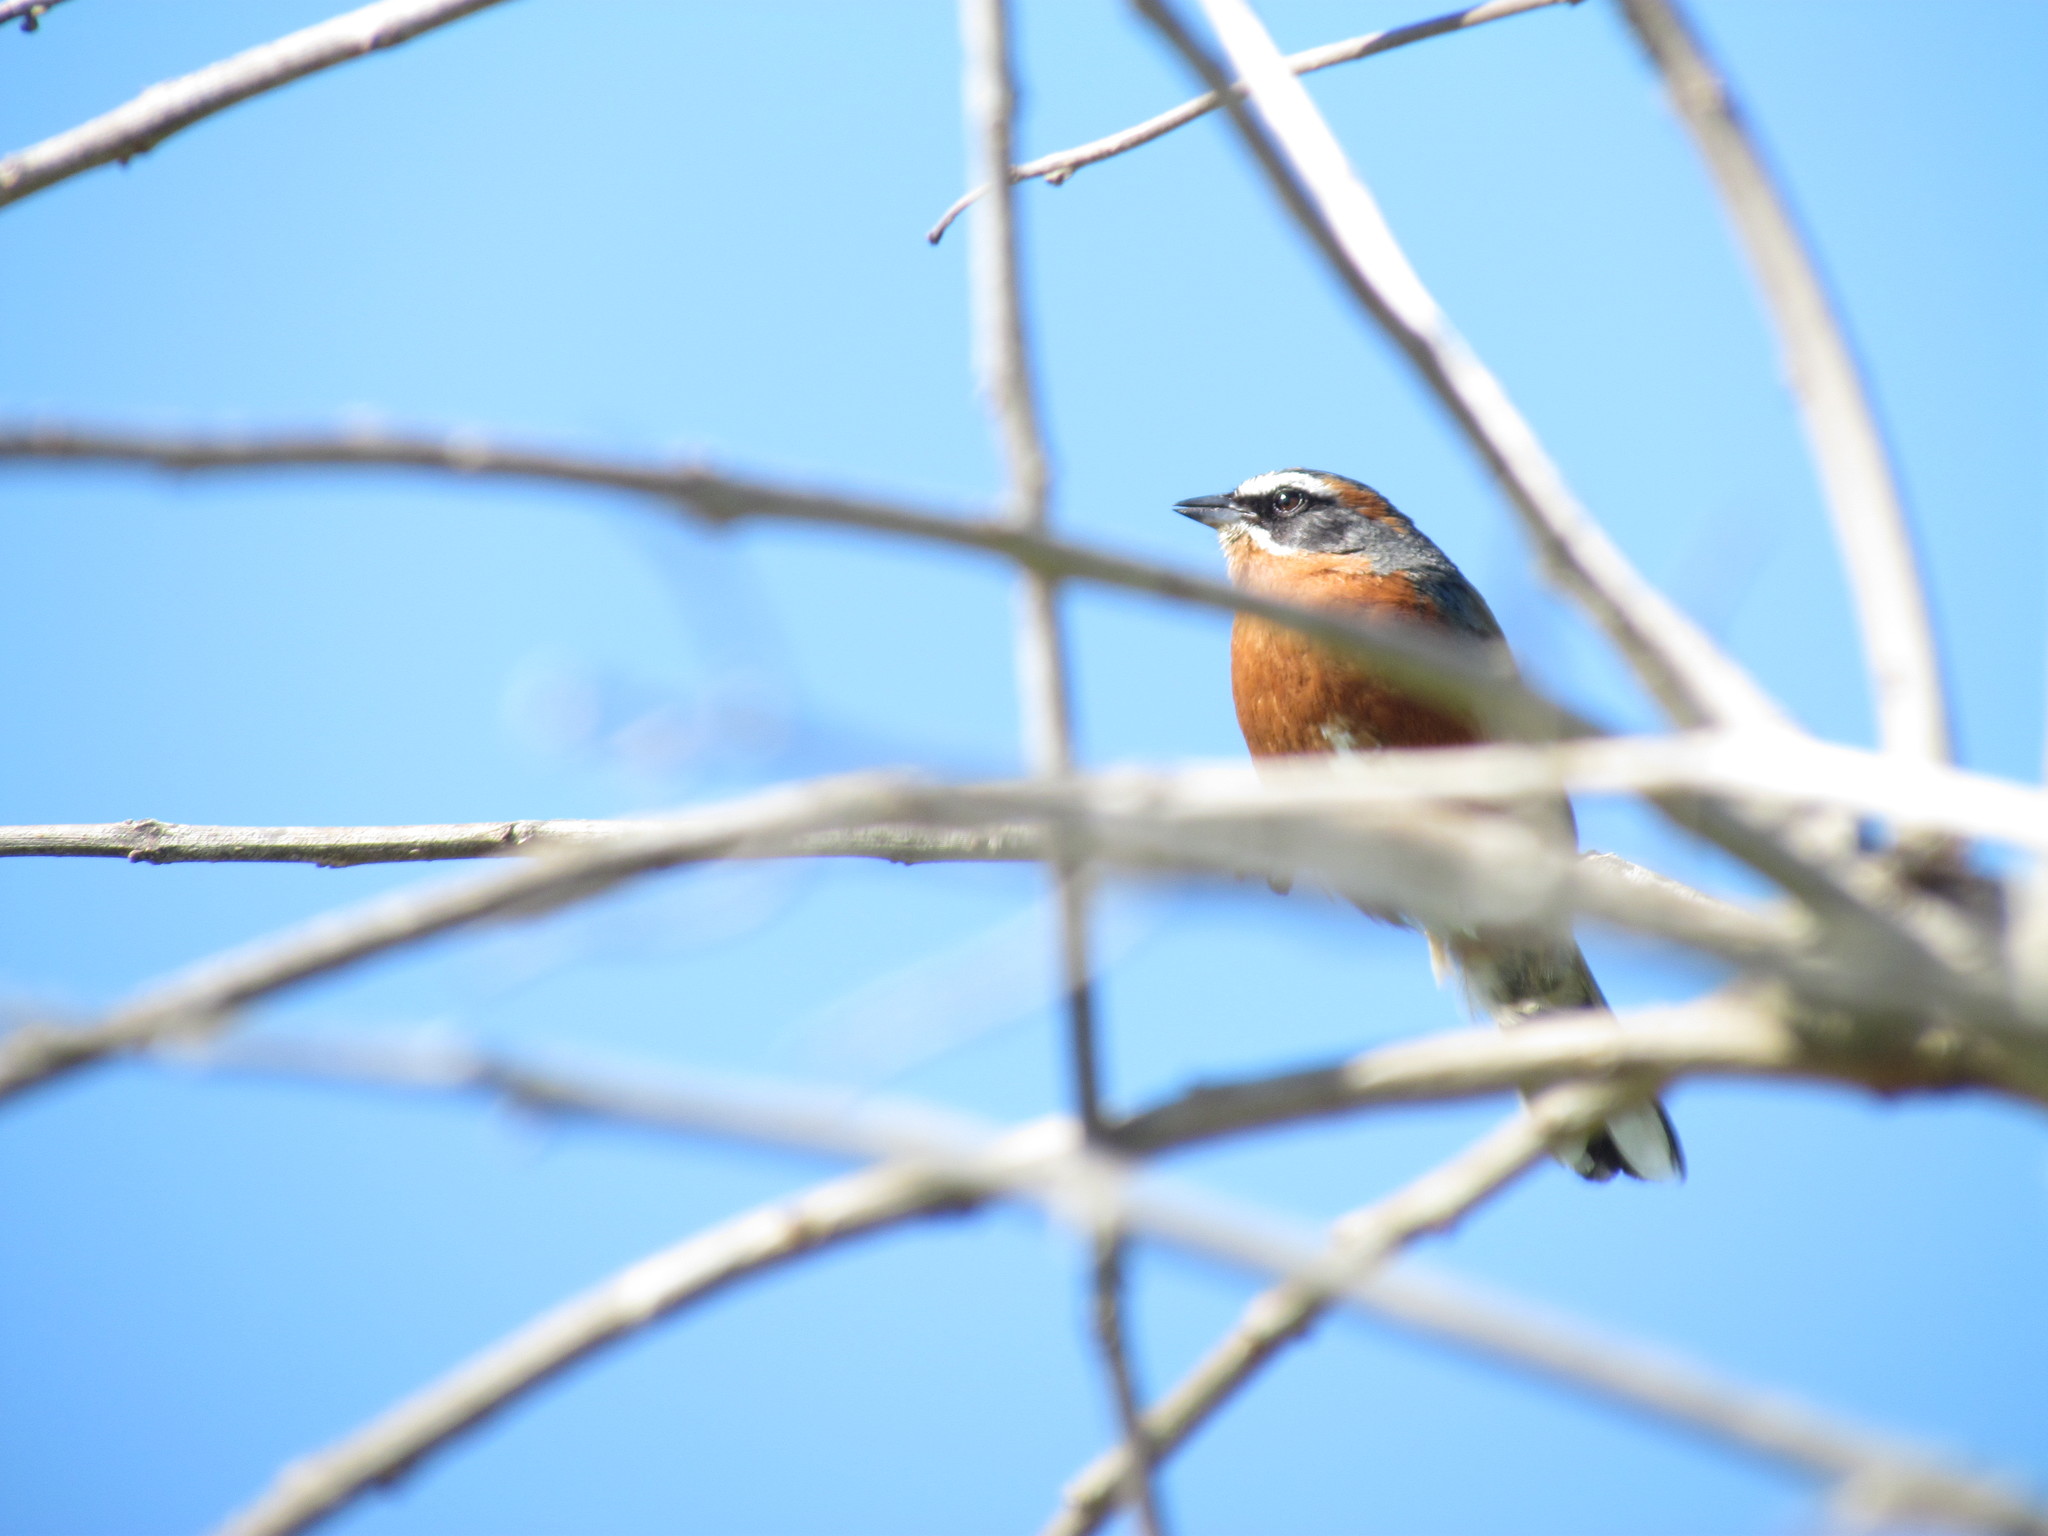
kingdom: Animalia
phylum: Chordata
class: Aves
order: Passeriformes
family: Thraupidae
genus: Poospiza
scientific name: Poospiza nigrorufa
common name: Black-and-rufous warbling finch
